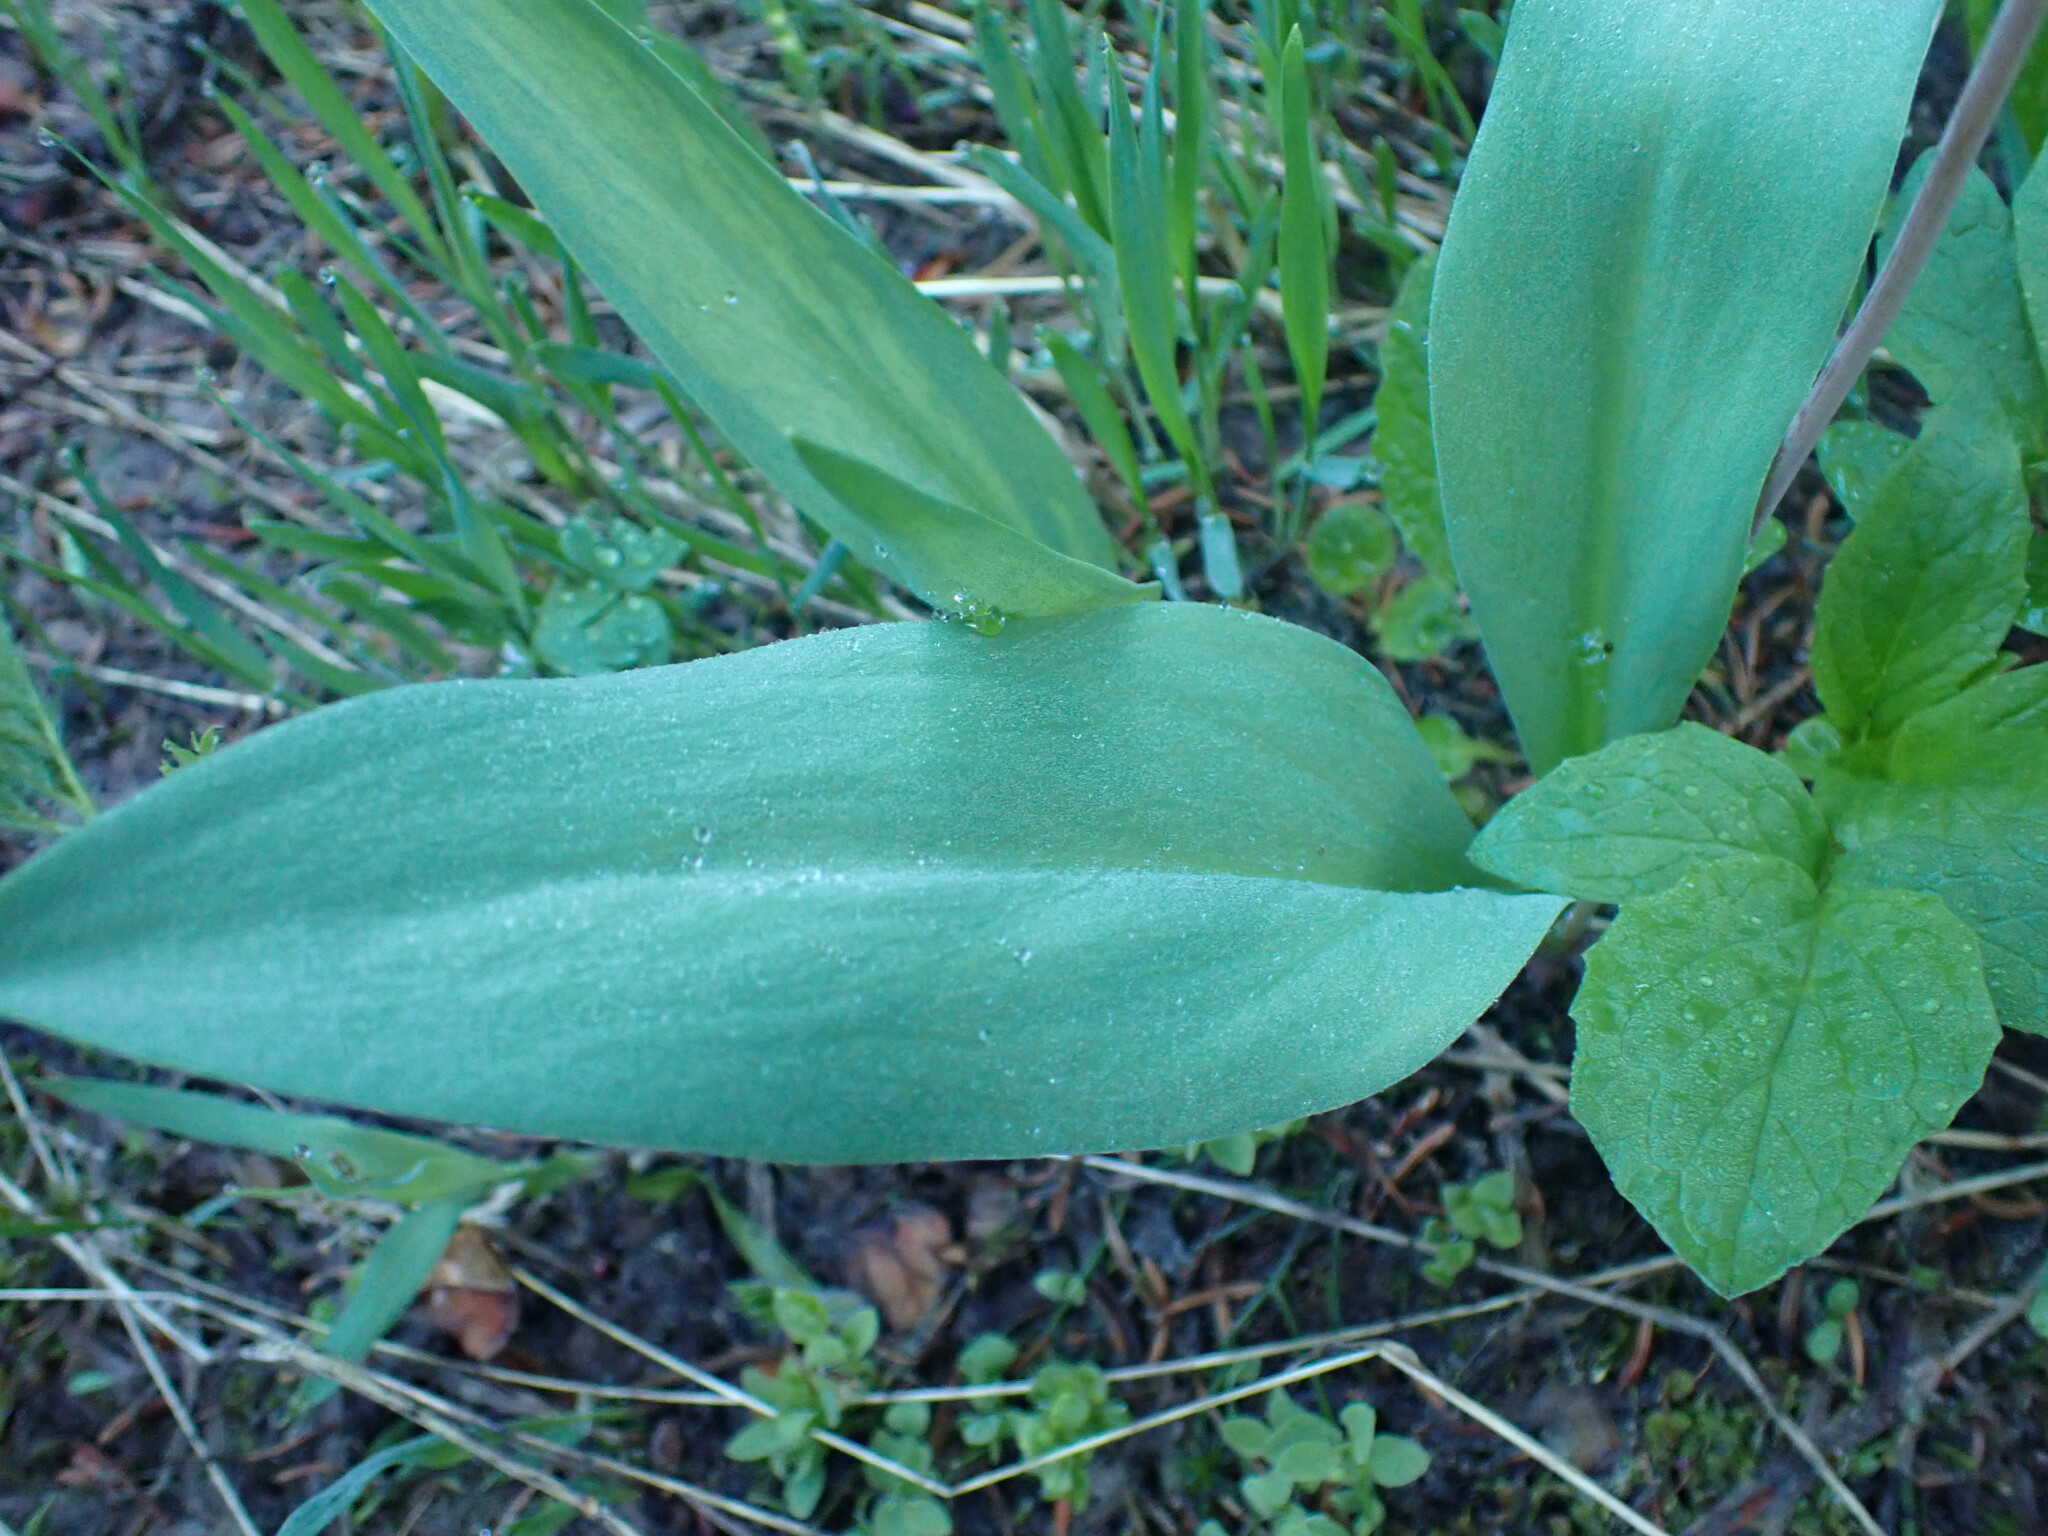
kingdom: Plantae
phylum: Tracheophyta
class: Liliopsida
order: Liliales
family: Liliaceae
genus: Erythronium
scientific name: Erythronium grandiflorum
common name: Avalanche-lily
